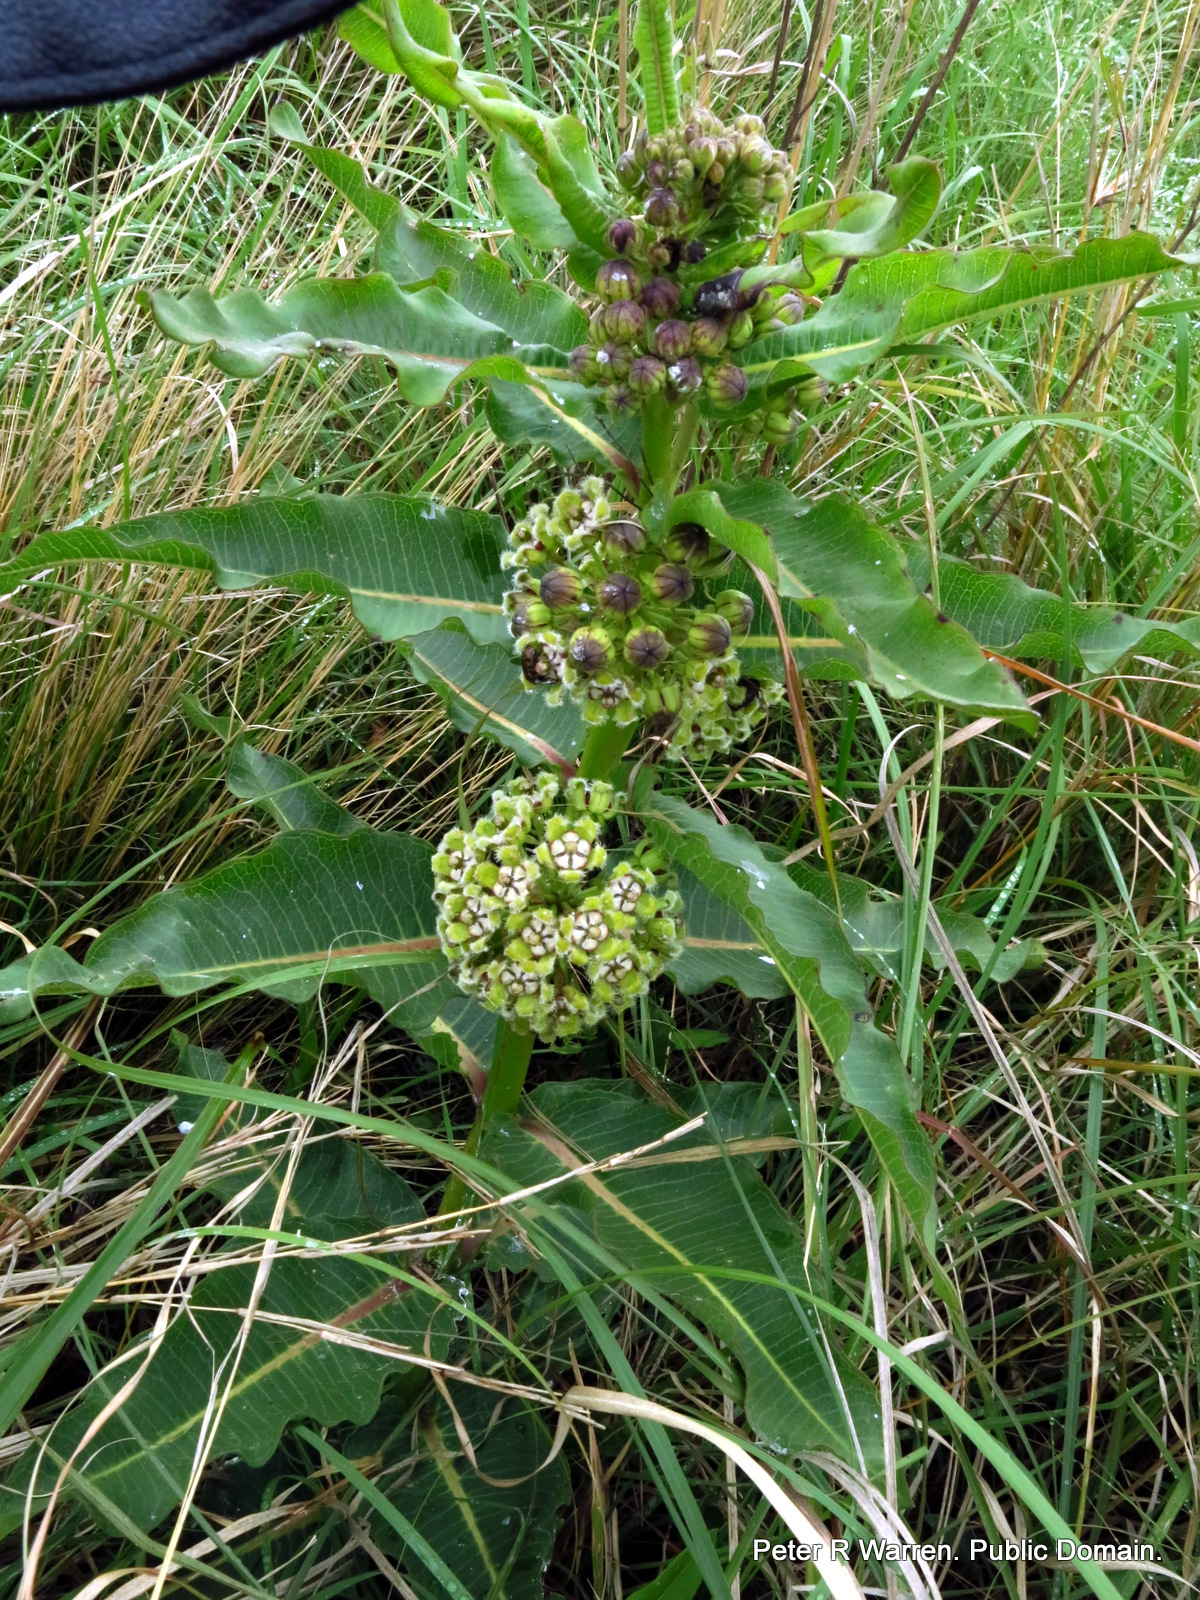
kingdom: Plantae
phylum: Tracheophyta
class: Magnoliopsida
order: Gentianales
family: Apocynaceae
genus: Xysmalobium
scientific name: Xysmalobium undulatum
